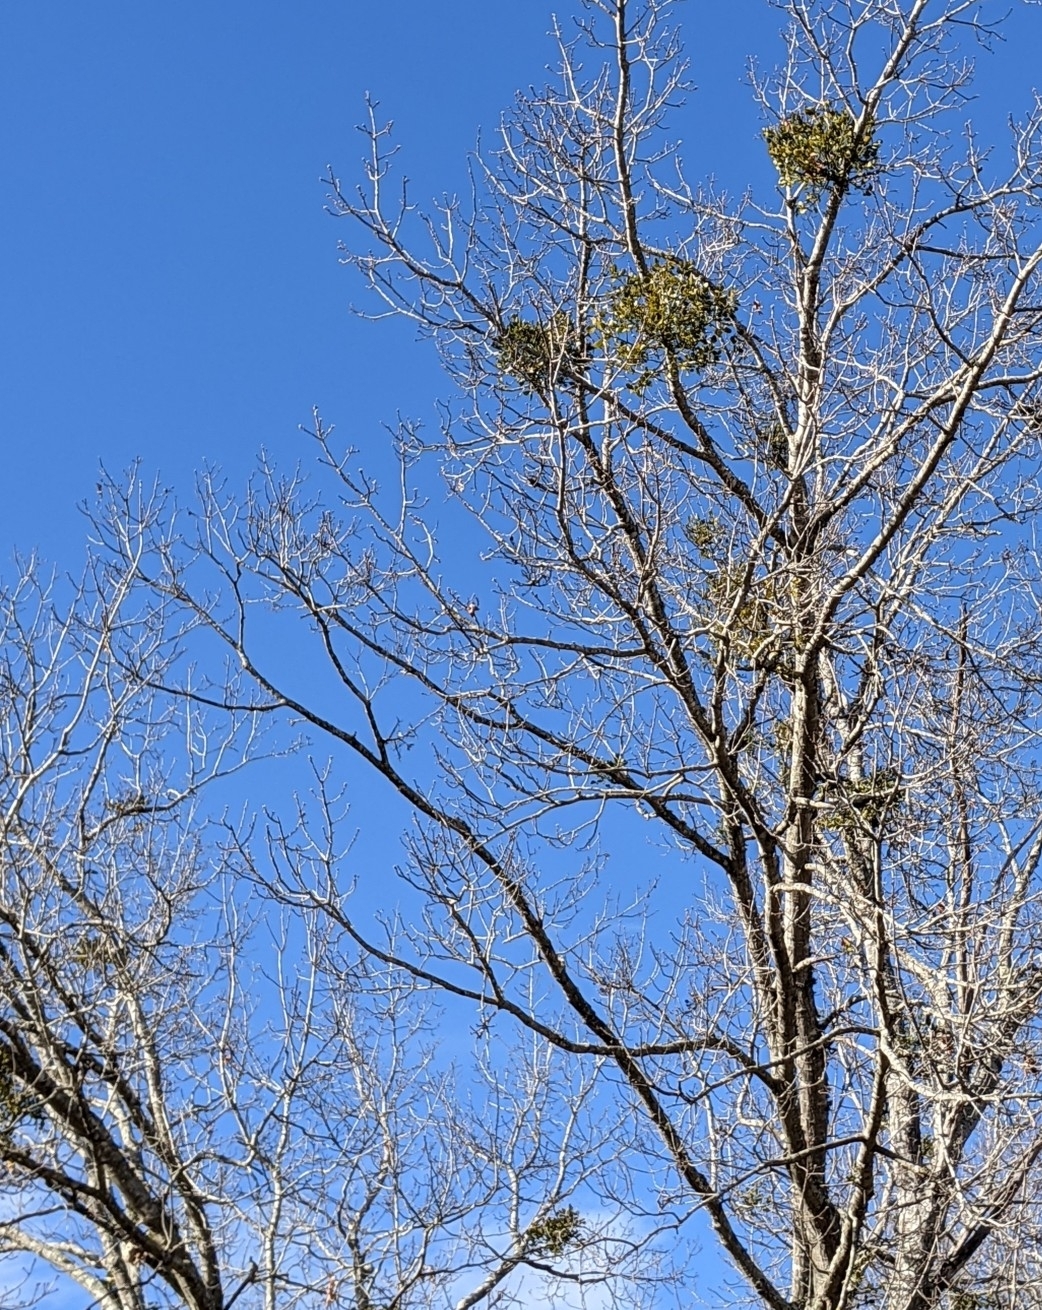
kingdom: Plantae
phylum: Tracheophyta
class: Magnoliopsida
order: Santalales
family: Viscaceae
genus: Phoradendron
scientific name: Phoradendron leucarpum
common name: Pacific mistletoe
